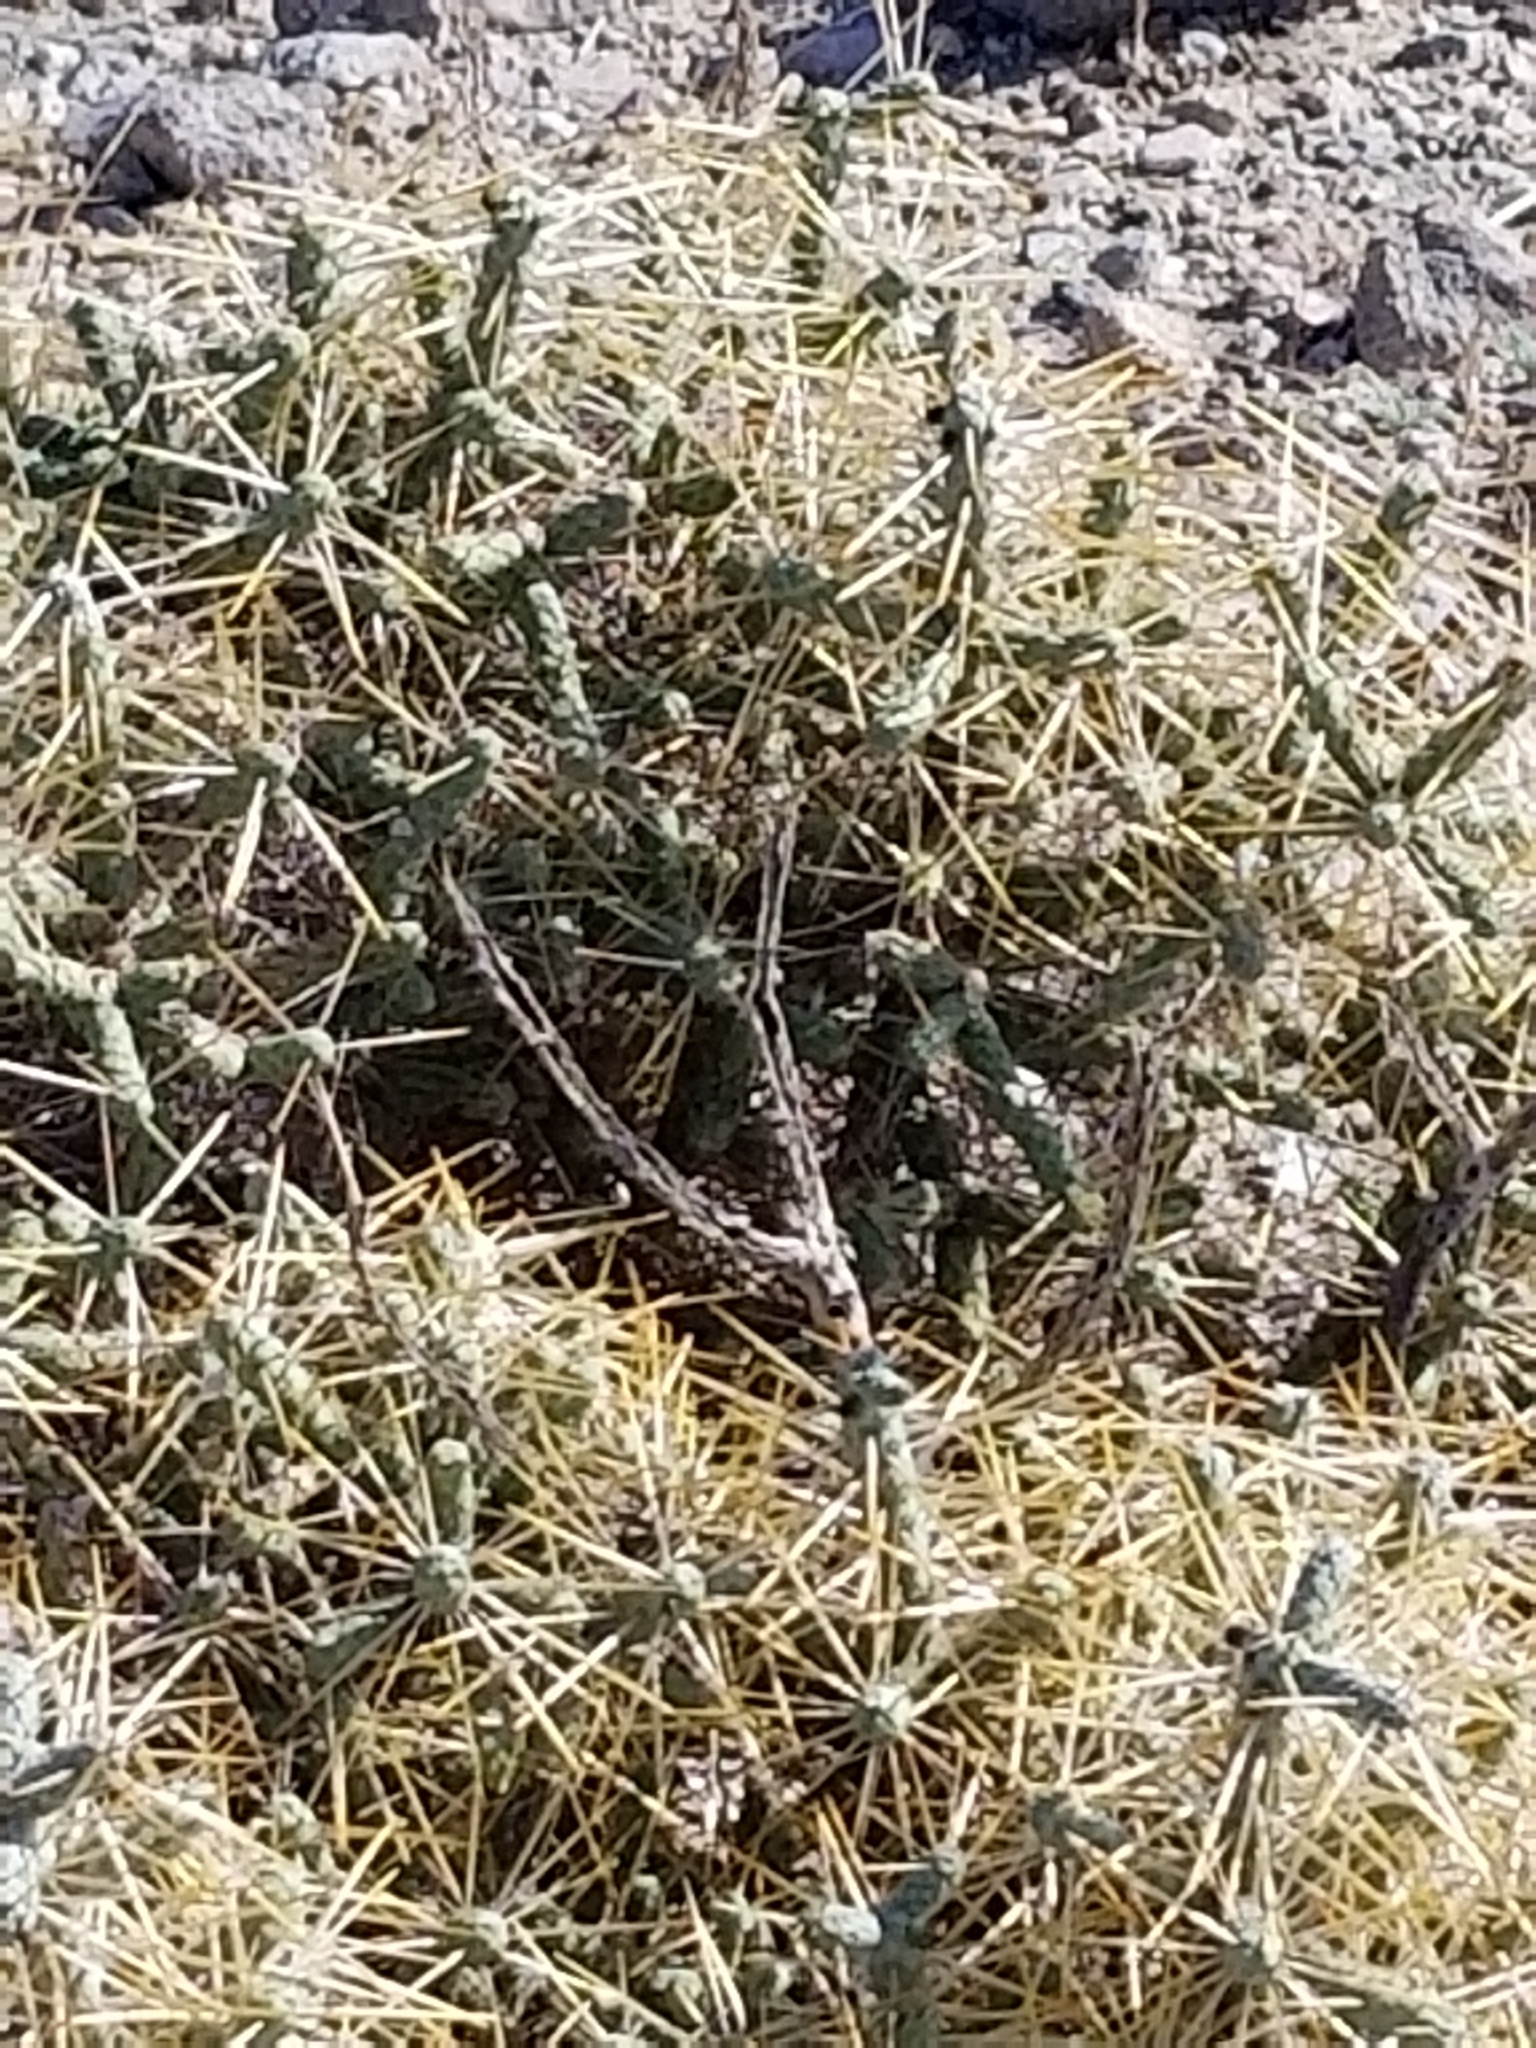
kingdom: Plantae
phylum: Tracheophyta
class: Magnoliopsida
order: Caryophyllales
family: Cactaceae
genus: Cylindropuntia
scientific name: Cylindropuntia ramosissima
